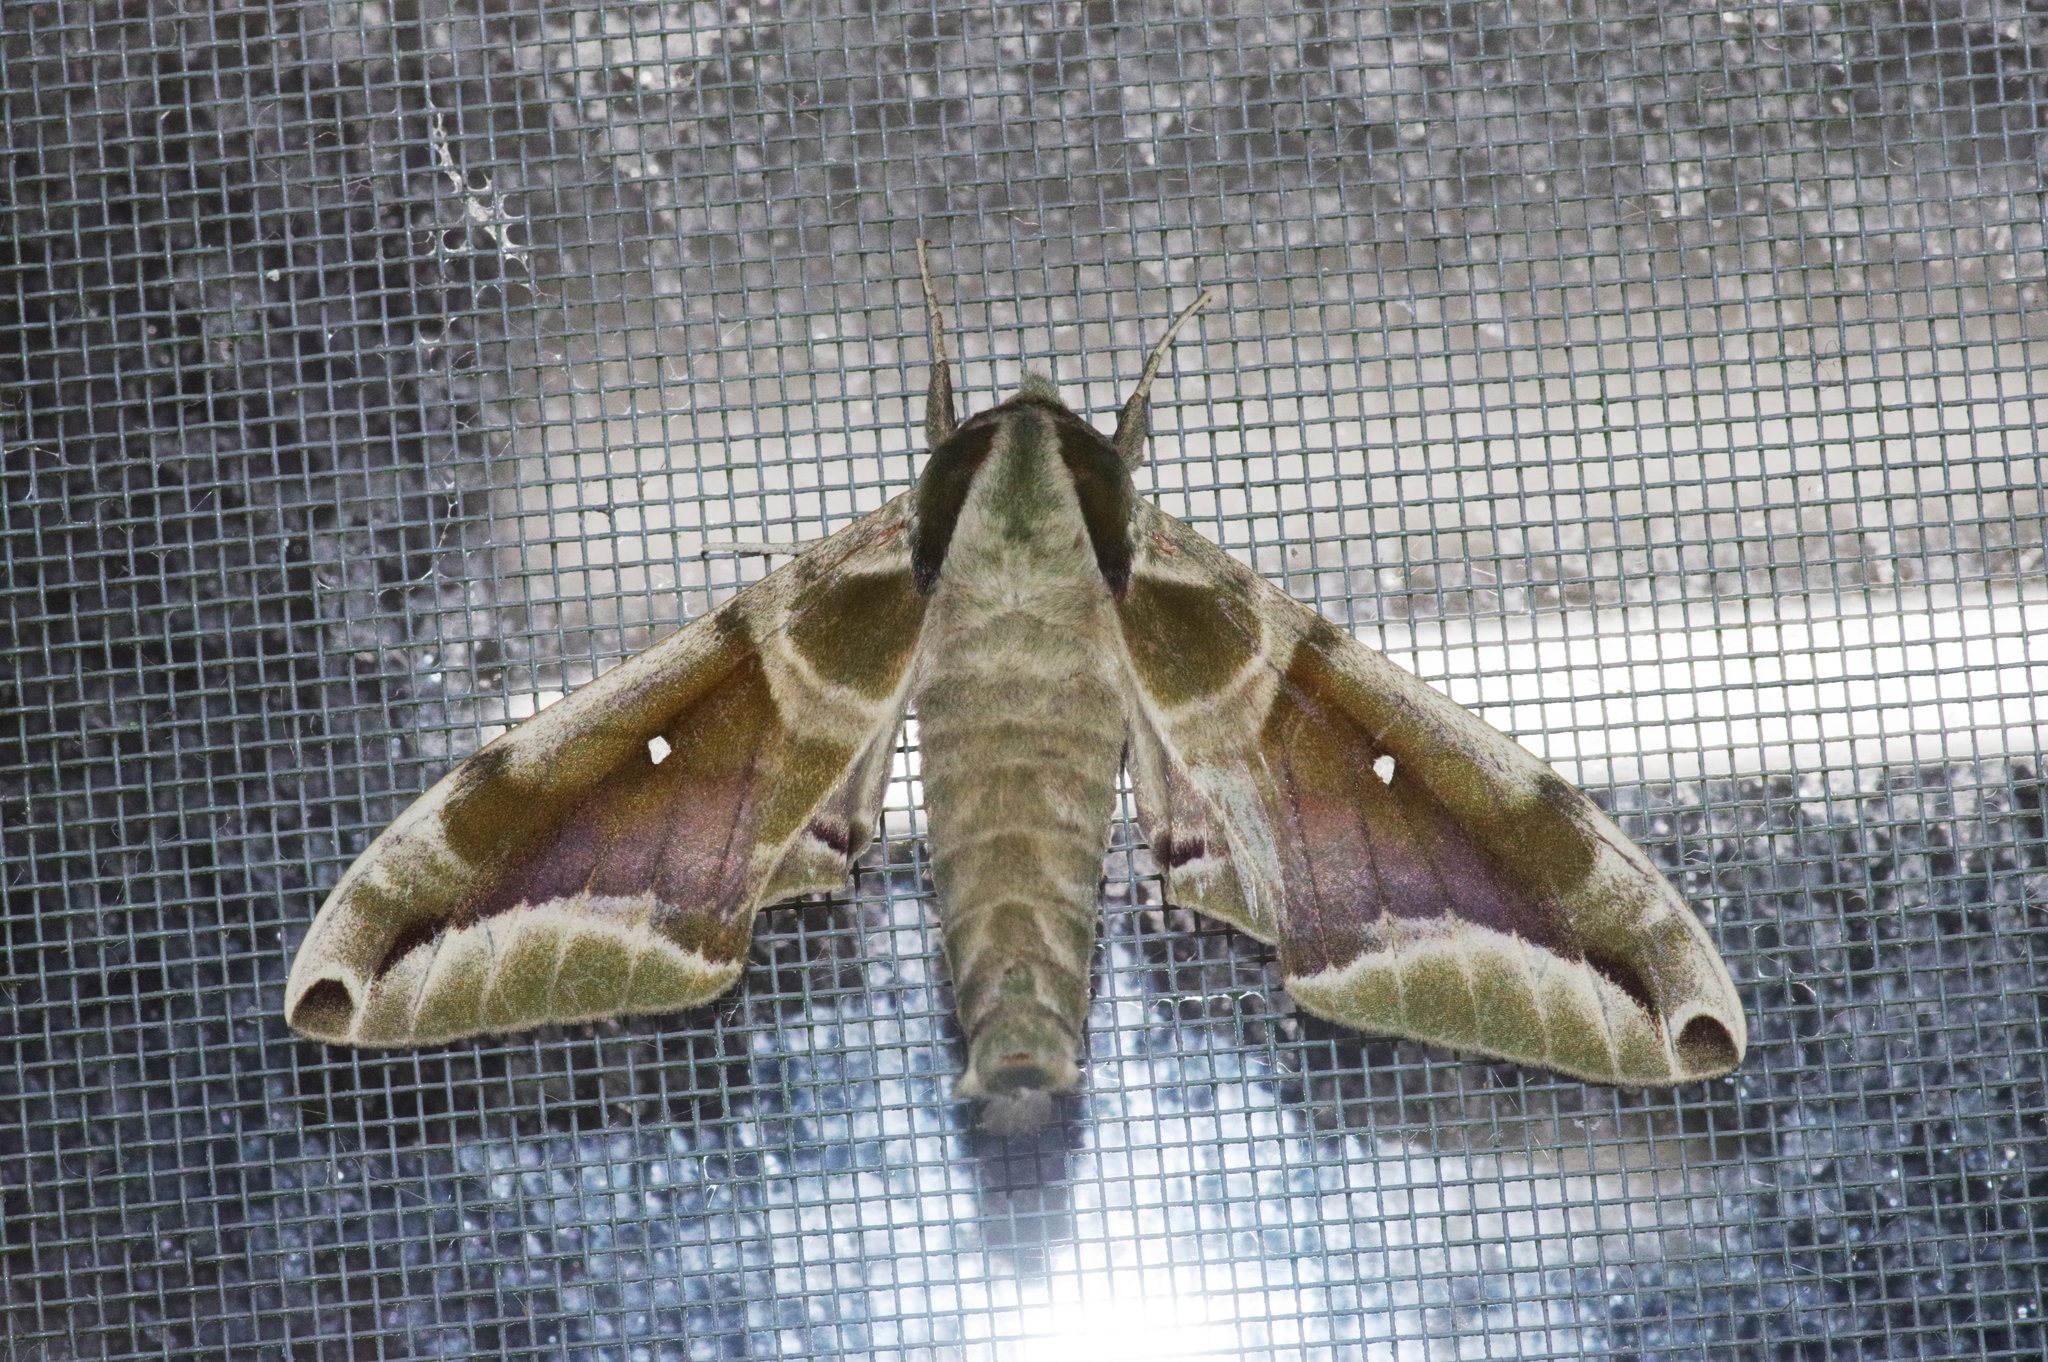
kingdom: Animalia
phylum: Arthropoda
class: Insecta
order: Lepidoptera
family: Sphingidae
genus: Parum
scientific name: Parum colligata
